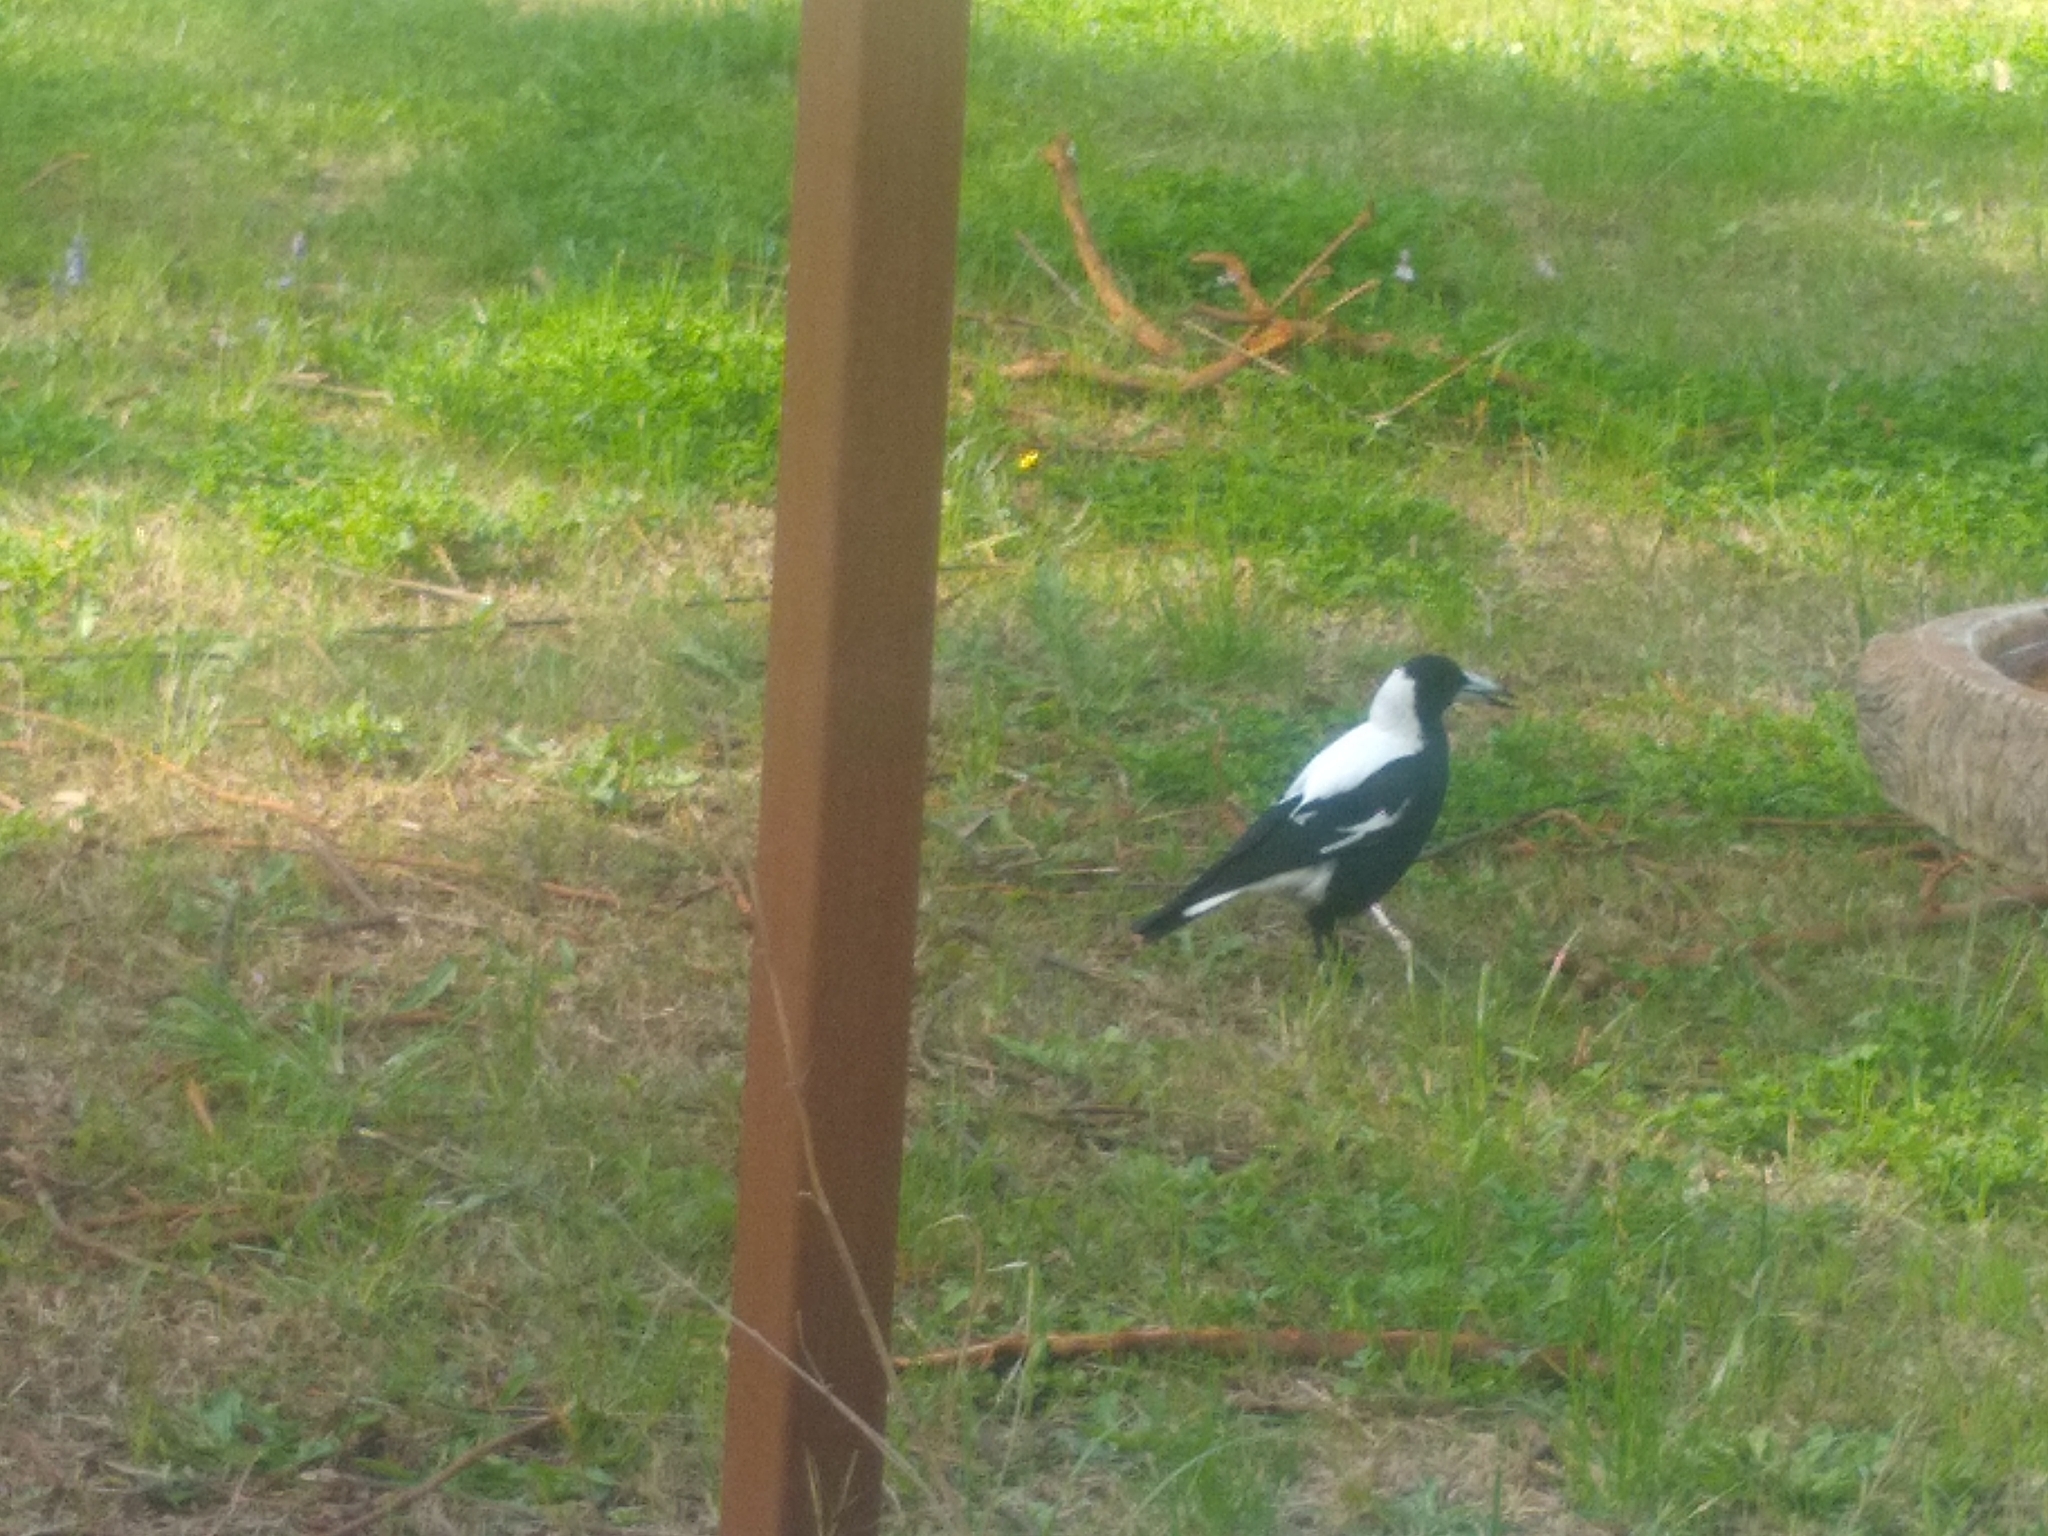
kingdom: Animalia
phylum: Chordata
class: Aves
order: Passeriformes
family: Cracticidae
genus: Gymnorhina
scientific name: Gymnorhina tibicen
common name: Australian magpie
